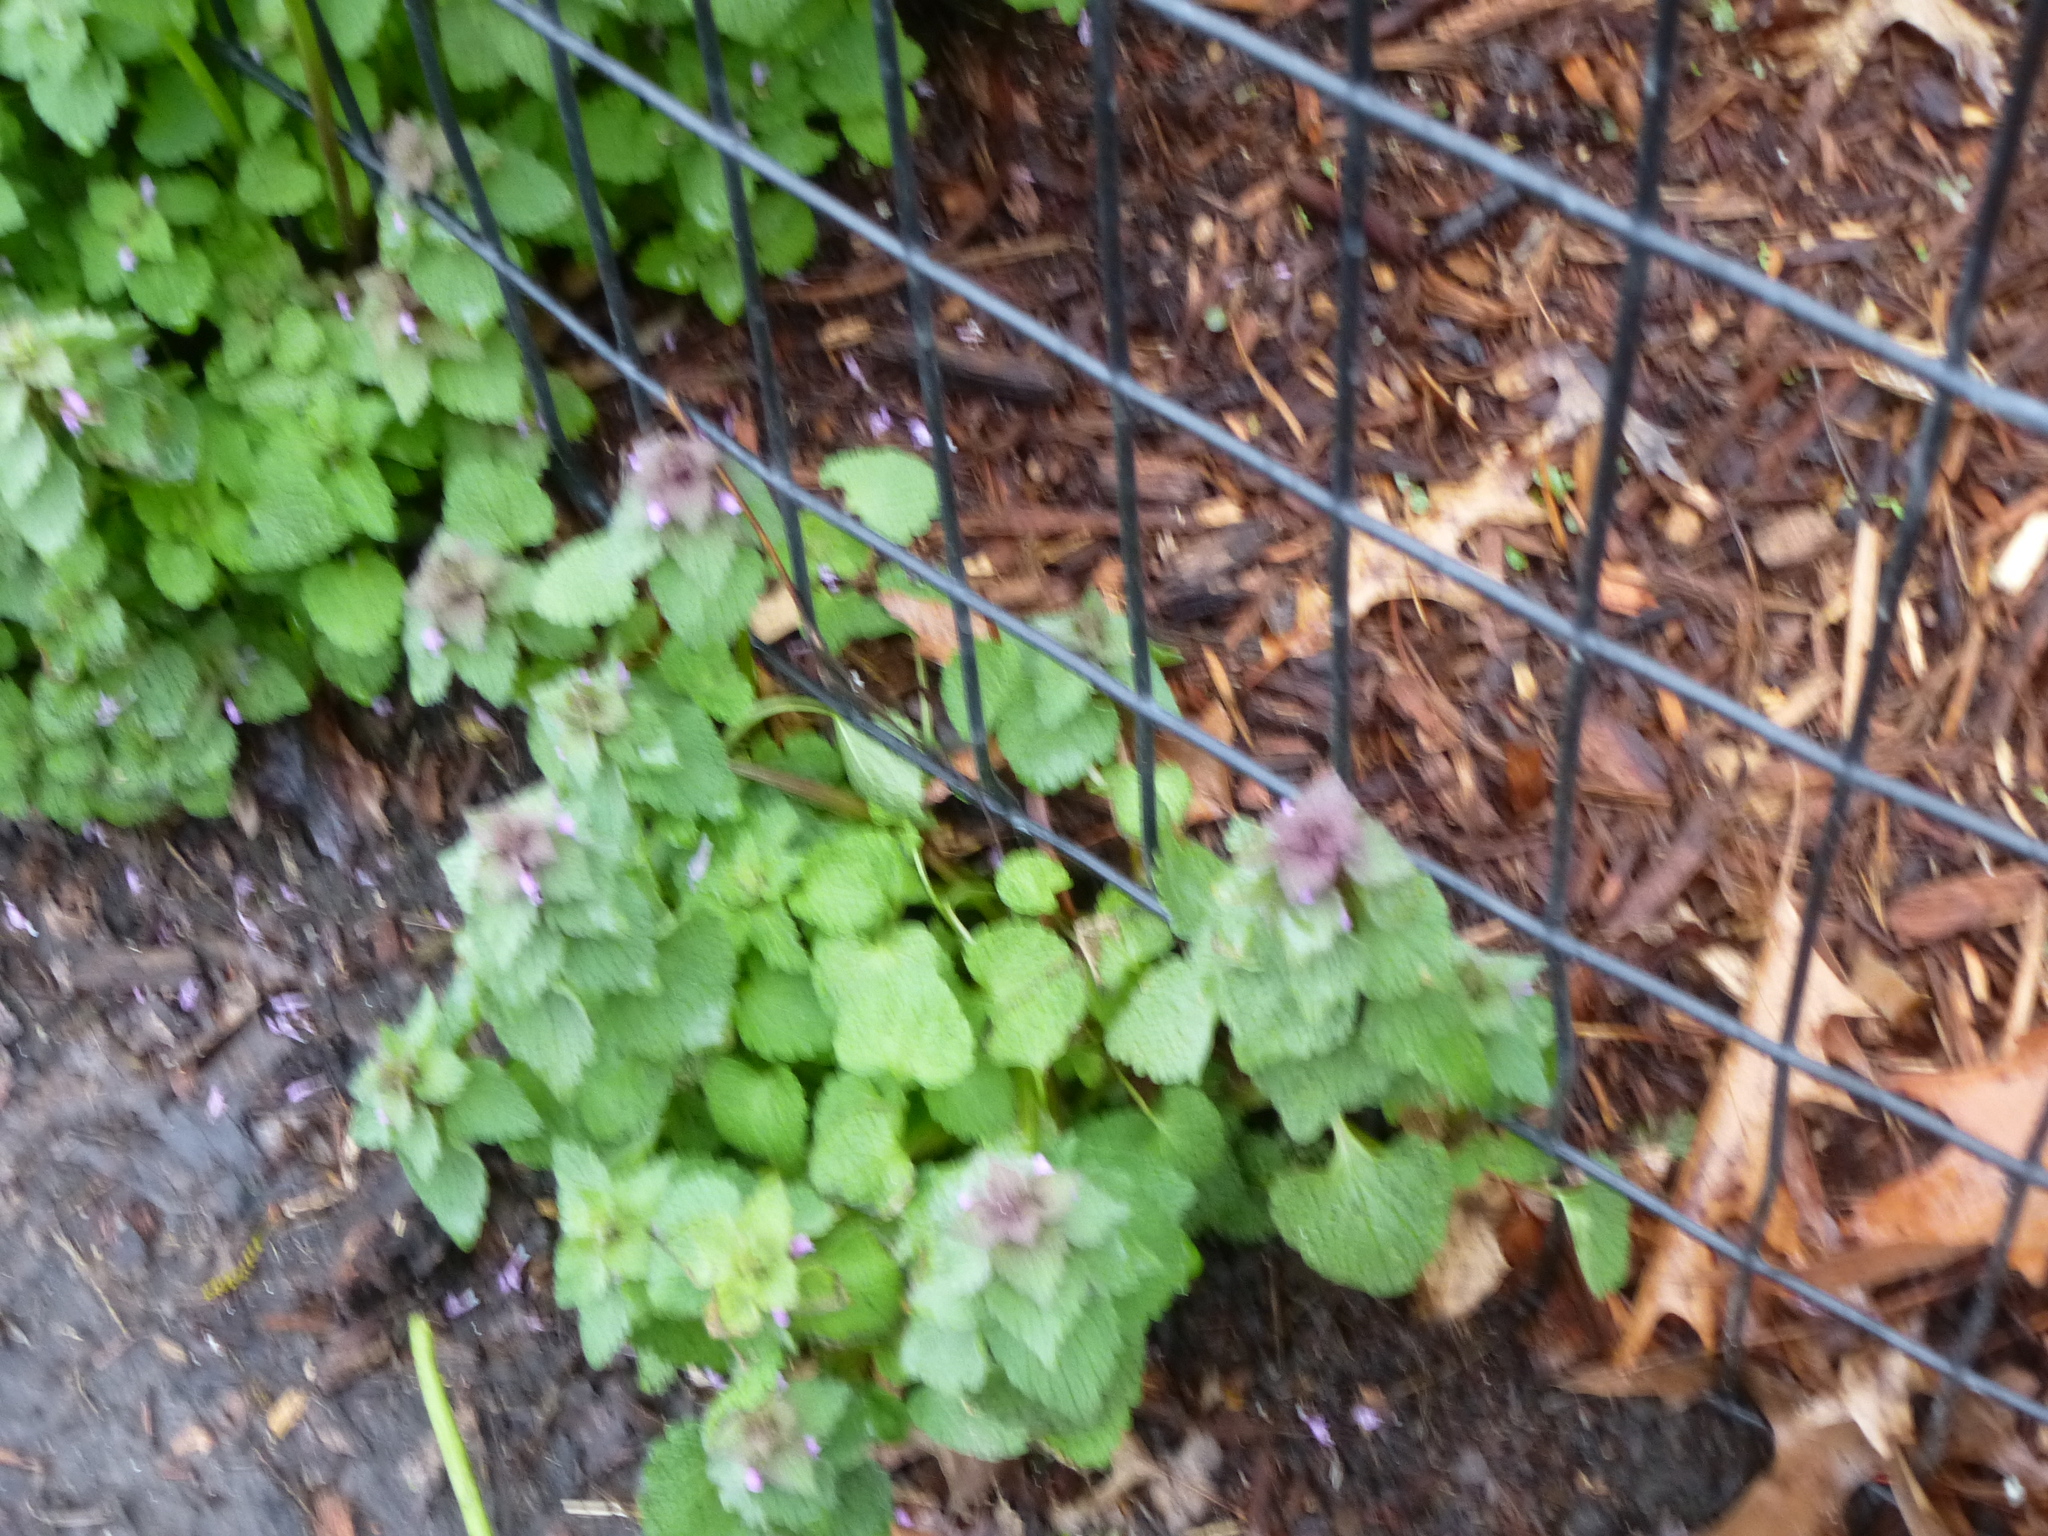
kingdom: Plantae
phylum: Tracheophyta
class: Magnoliopsida
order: Lamiales
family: Lamiaceae
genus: Lamium
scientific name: Lamium purpureum
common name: Red dead-nettle
